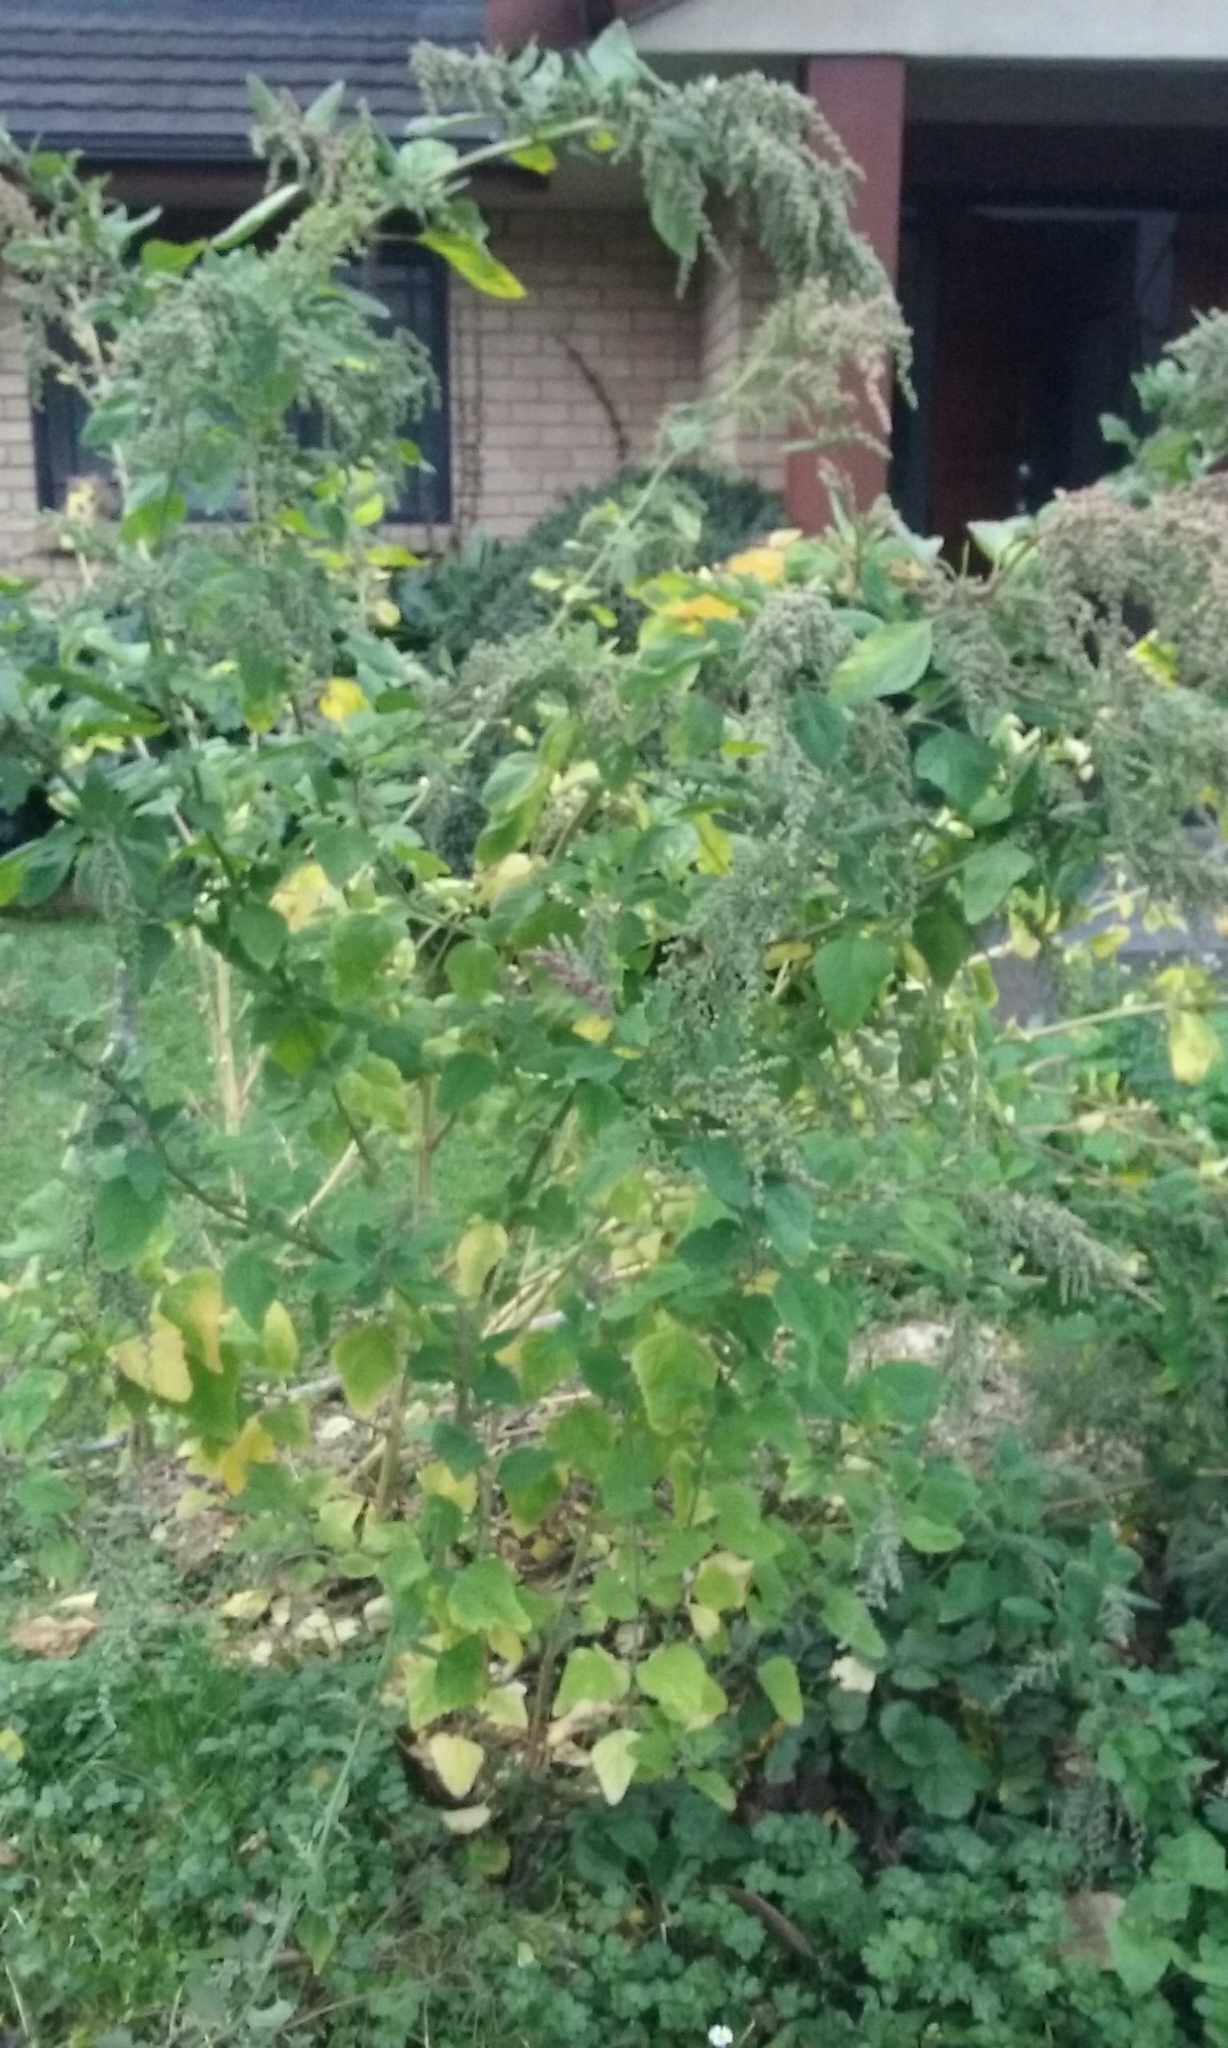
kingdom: Plantae
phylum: Tracheophyta
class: Magnoliopsida
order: Caryophyllales
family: Amaranthaceae
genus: Chenopodium
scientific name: Chenopodium album
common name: Fat-hen
